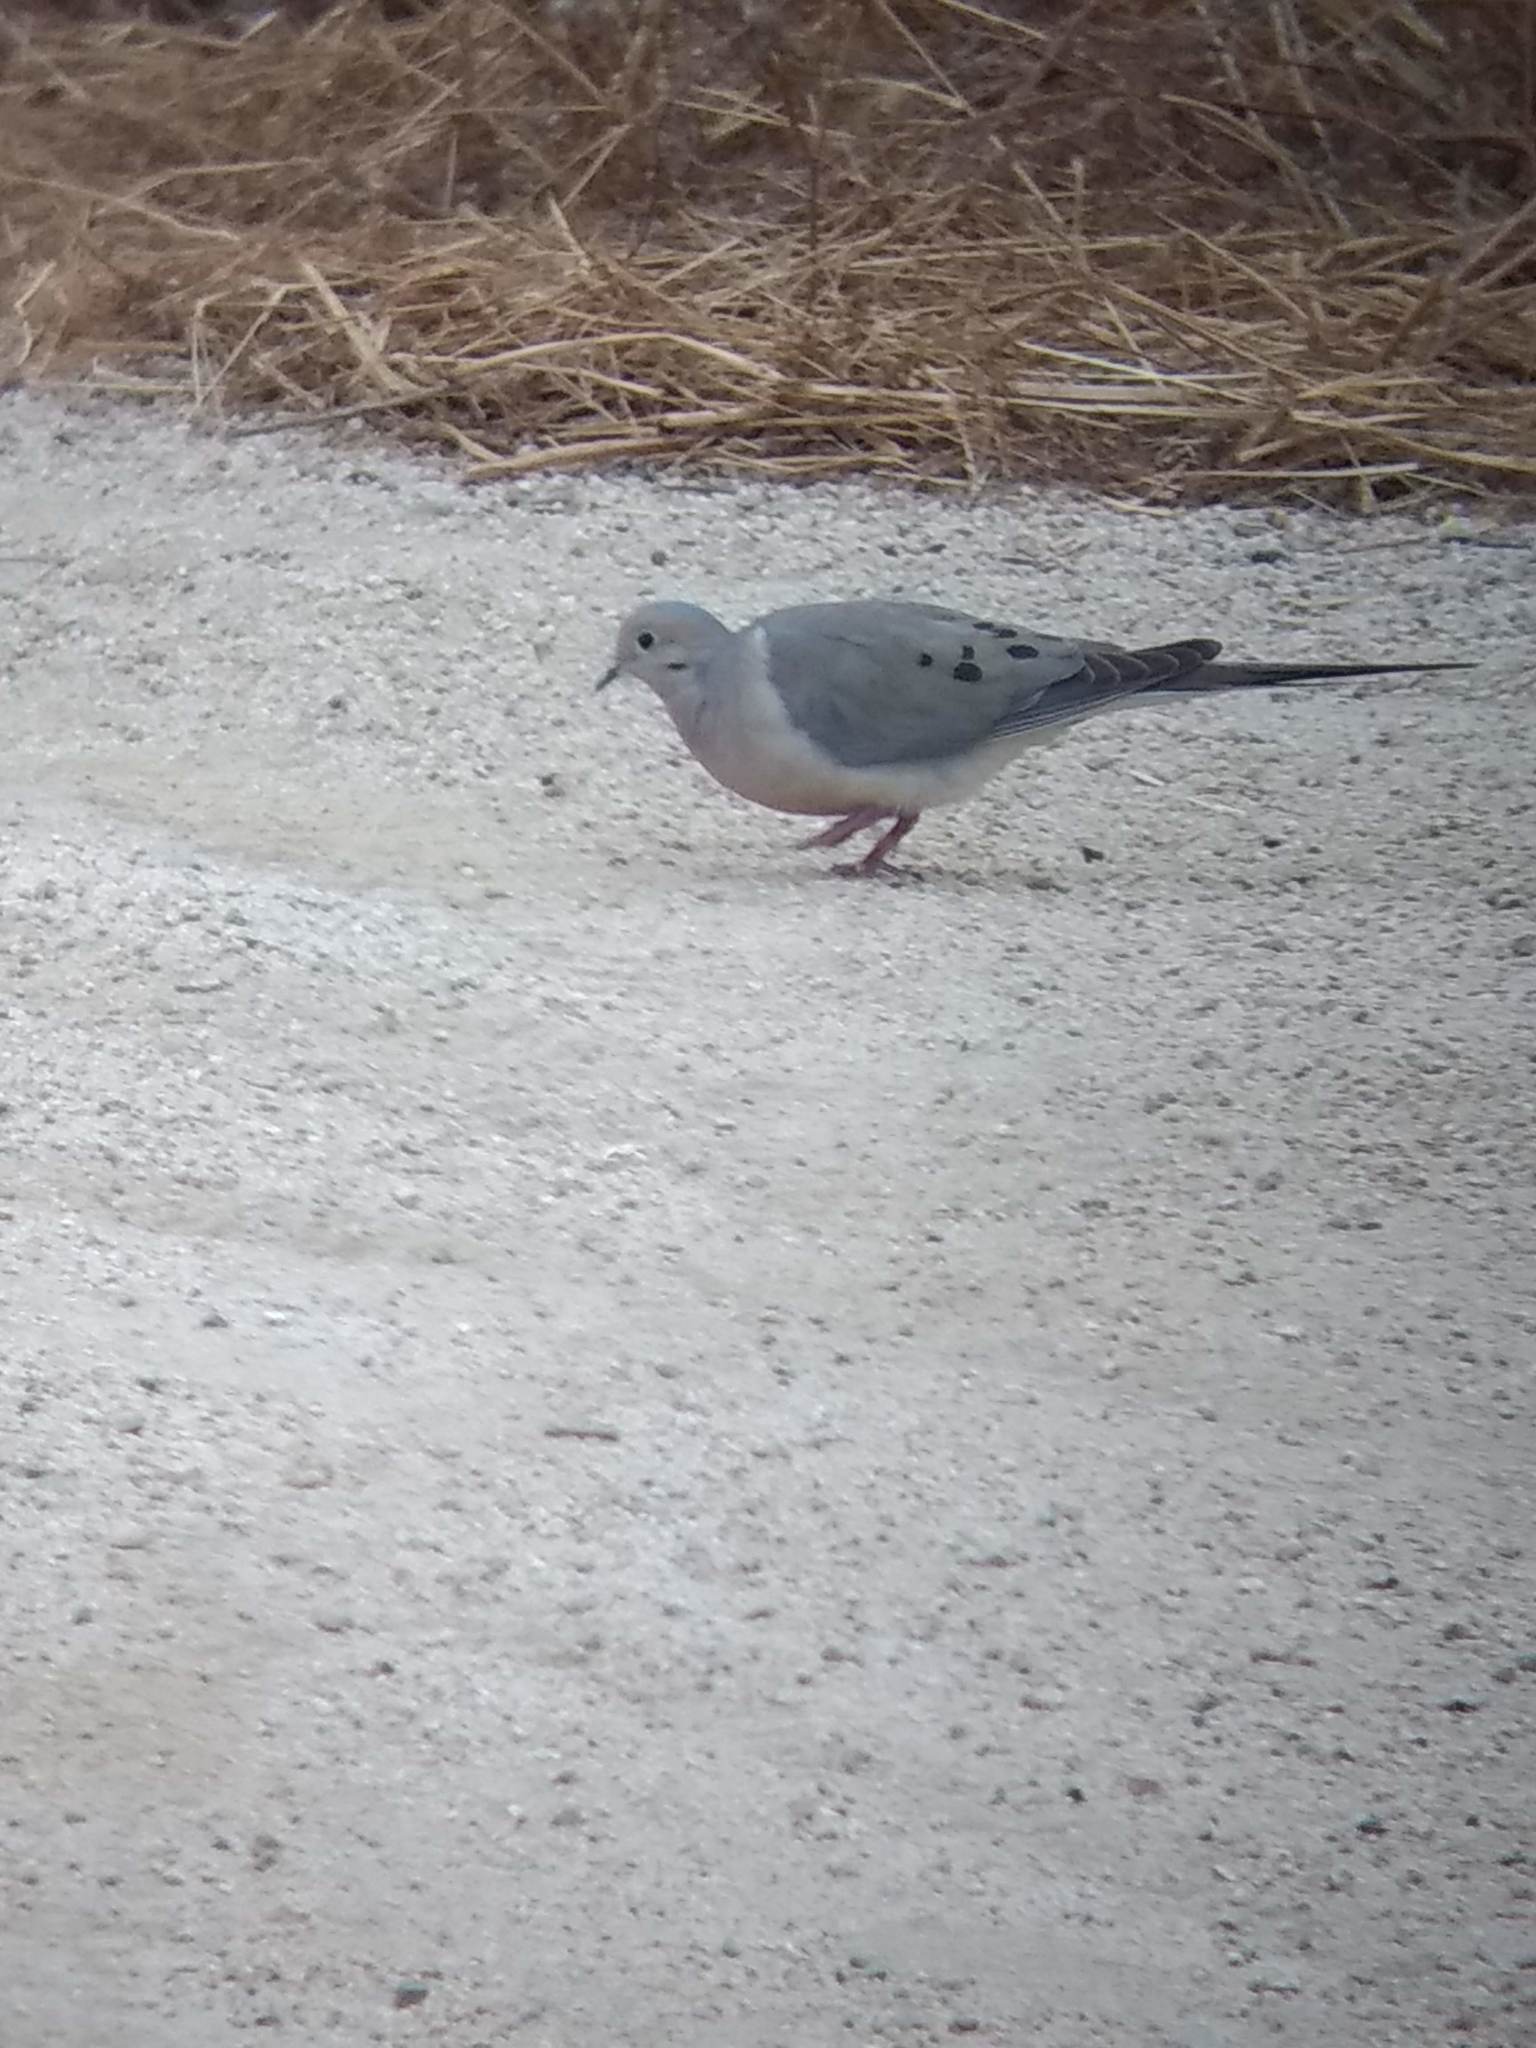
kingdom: Animalia
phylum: Chordata
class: Aves
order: Columbiformes
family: Columbidae
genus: Zenaida
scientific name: Zenaida macroura
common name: Mourning dove
